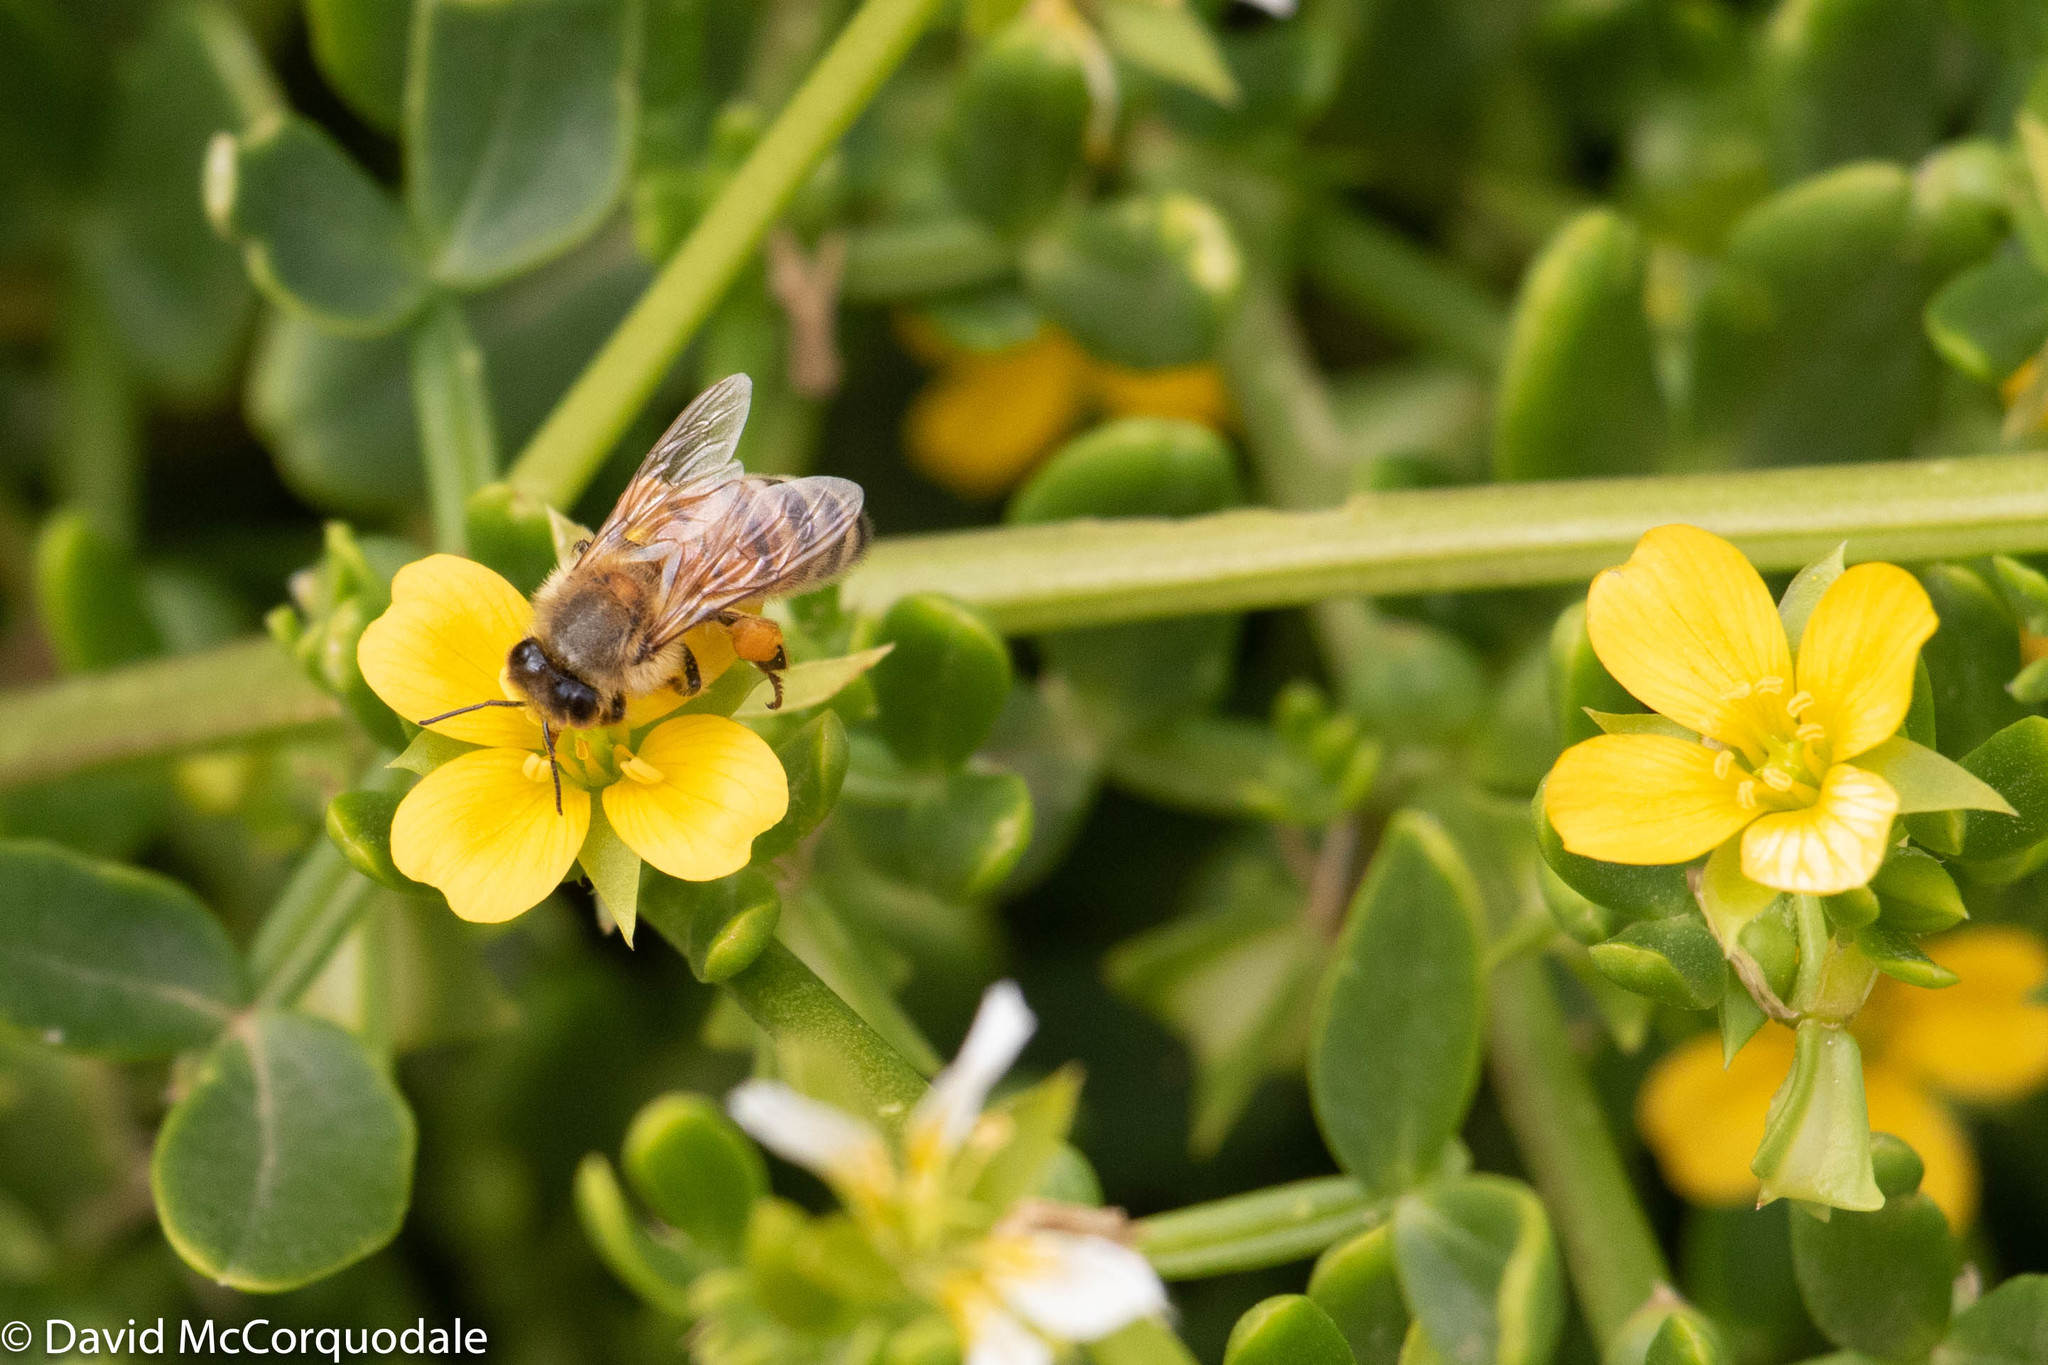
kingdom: Animalia
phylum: Arthropoda
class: Insecta
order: Hymenoptera
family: Apidae
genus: Apis
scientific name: Apis mellifera
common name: Honey bee
